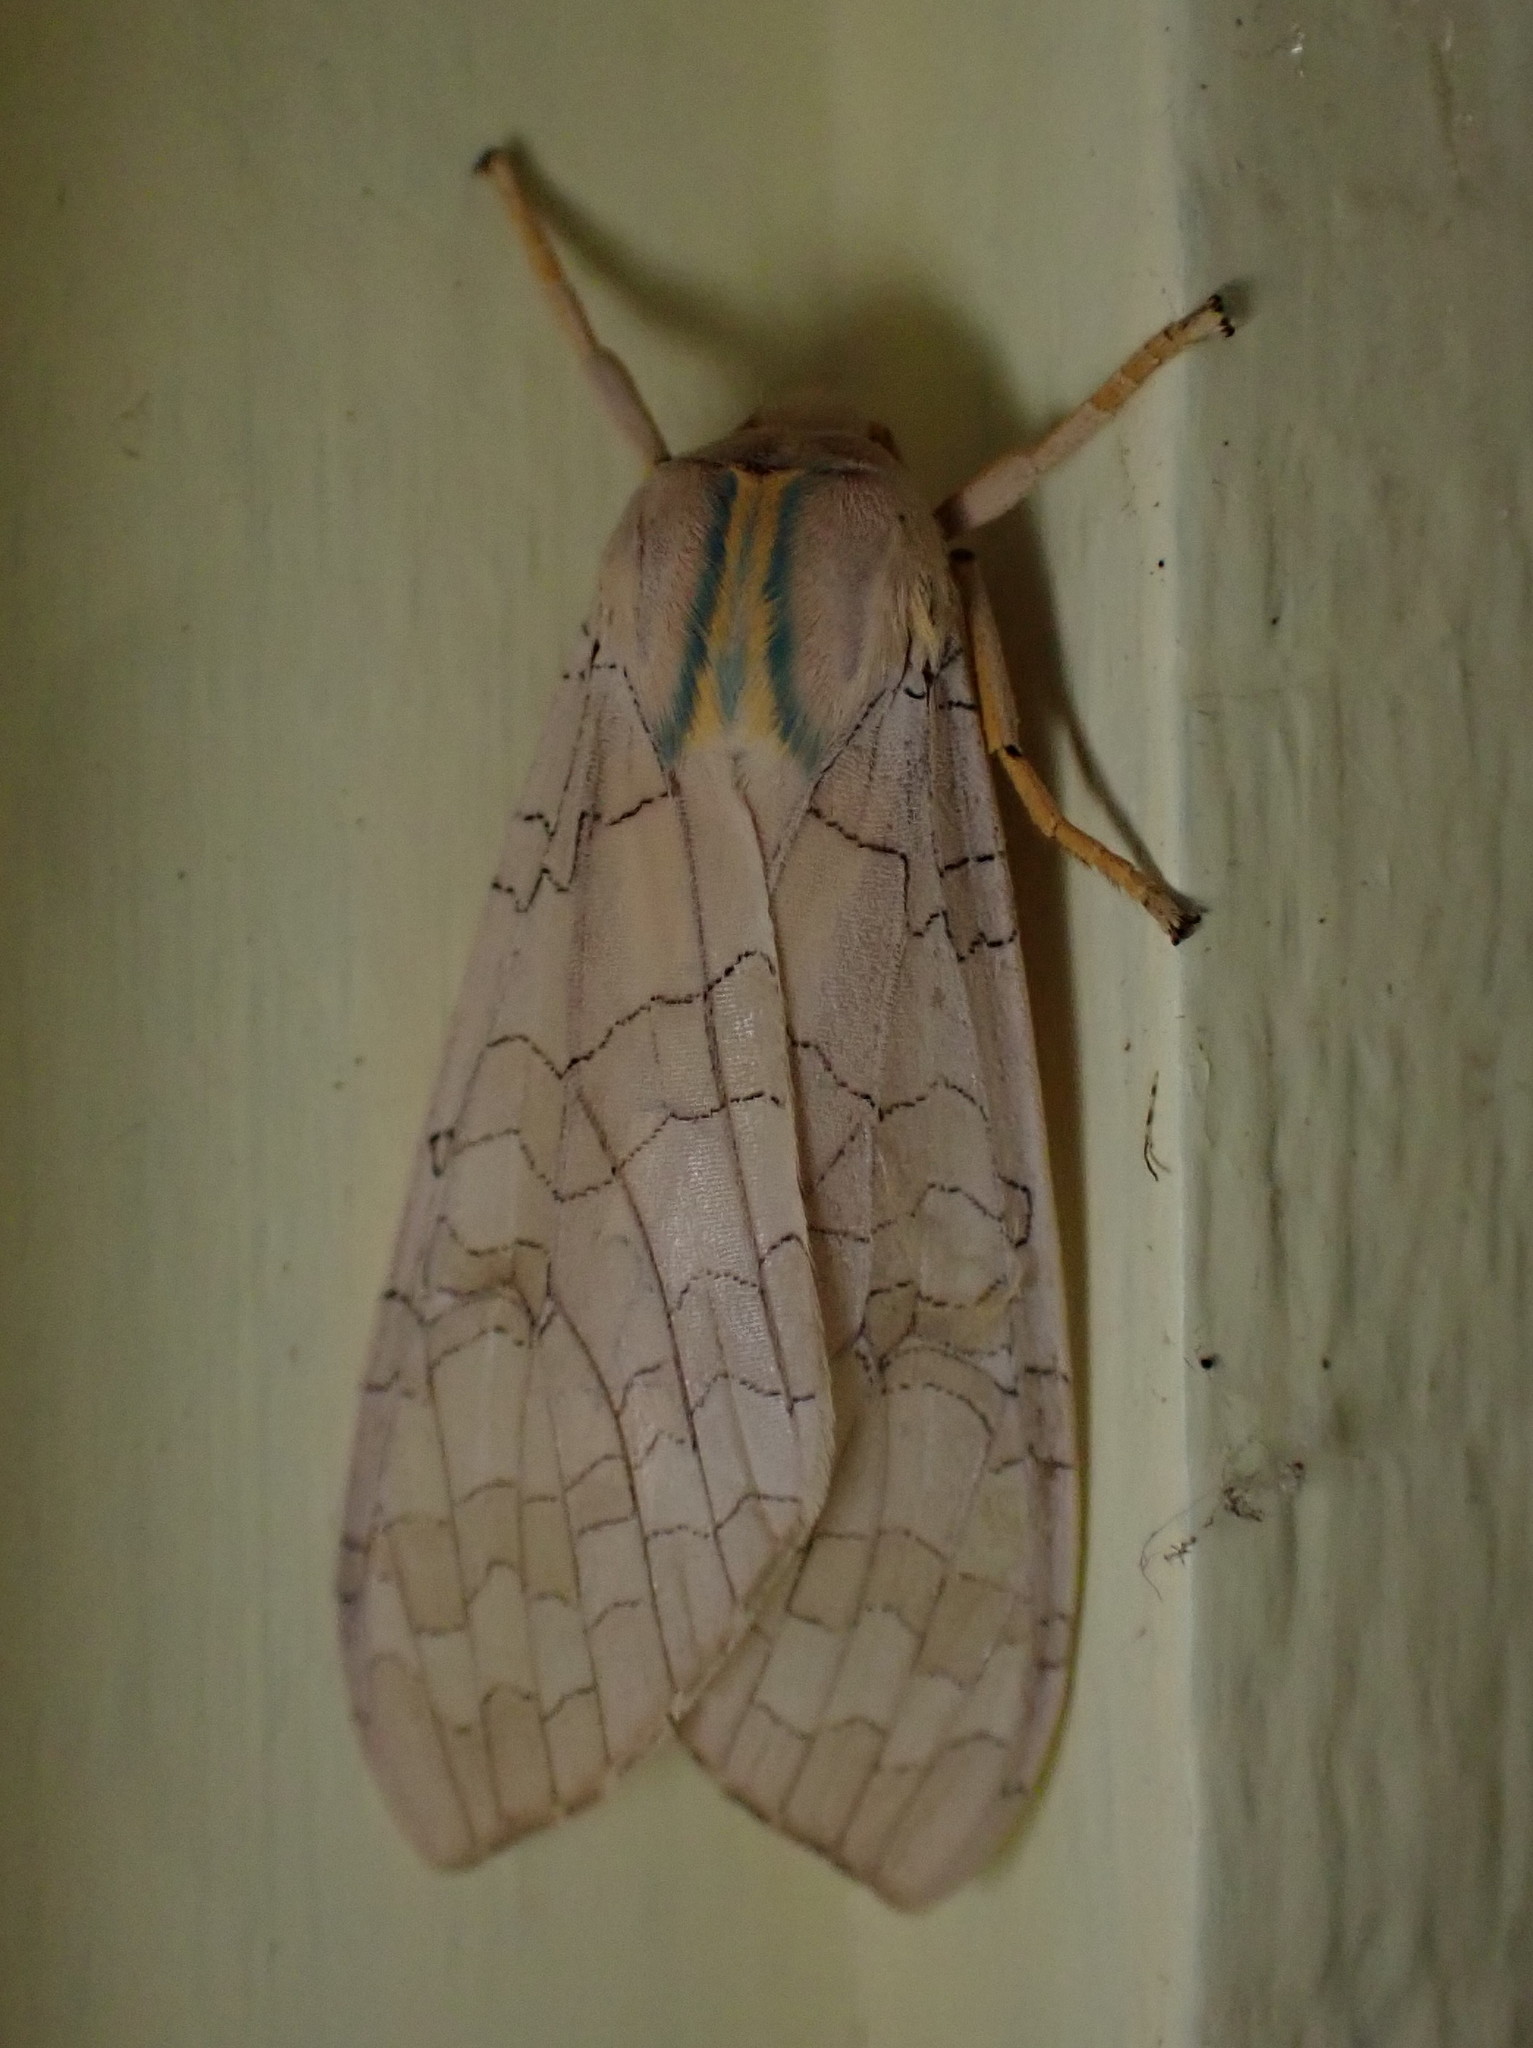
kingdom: Animalia
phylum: Arthropoda
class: Insecta
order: Lepidoptera
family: Erebidae
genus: Halysidota
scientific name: Halysidota tessellaris
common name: Banded tussock moth
